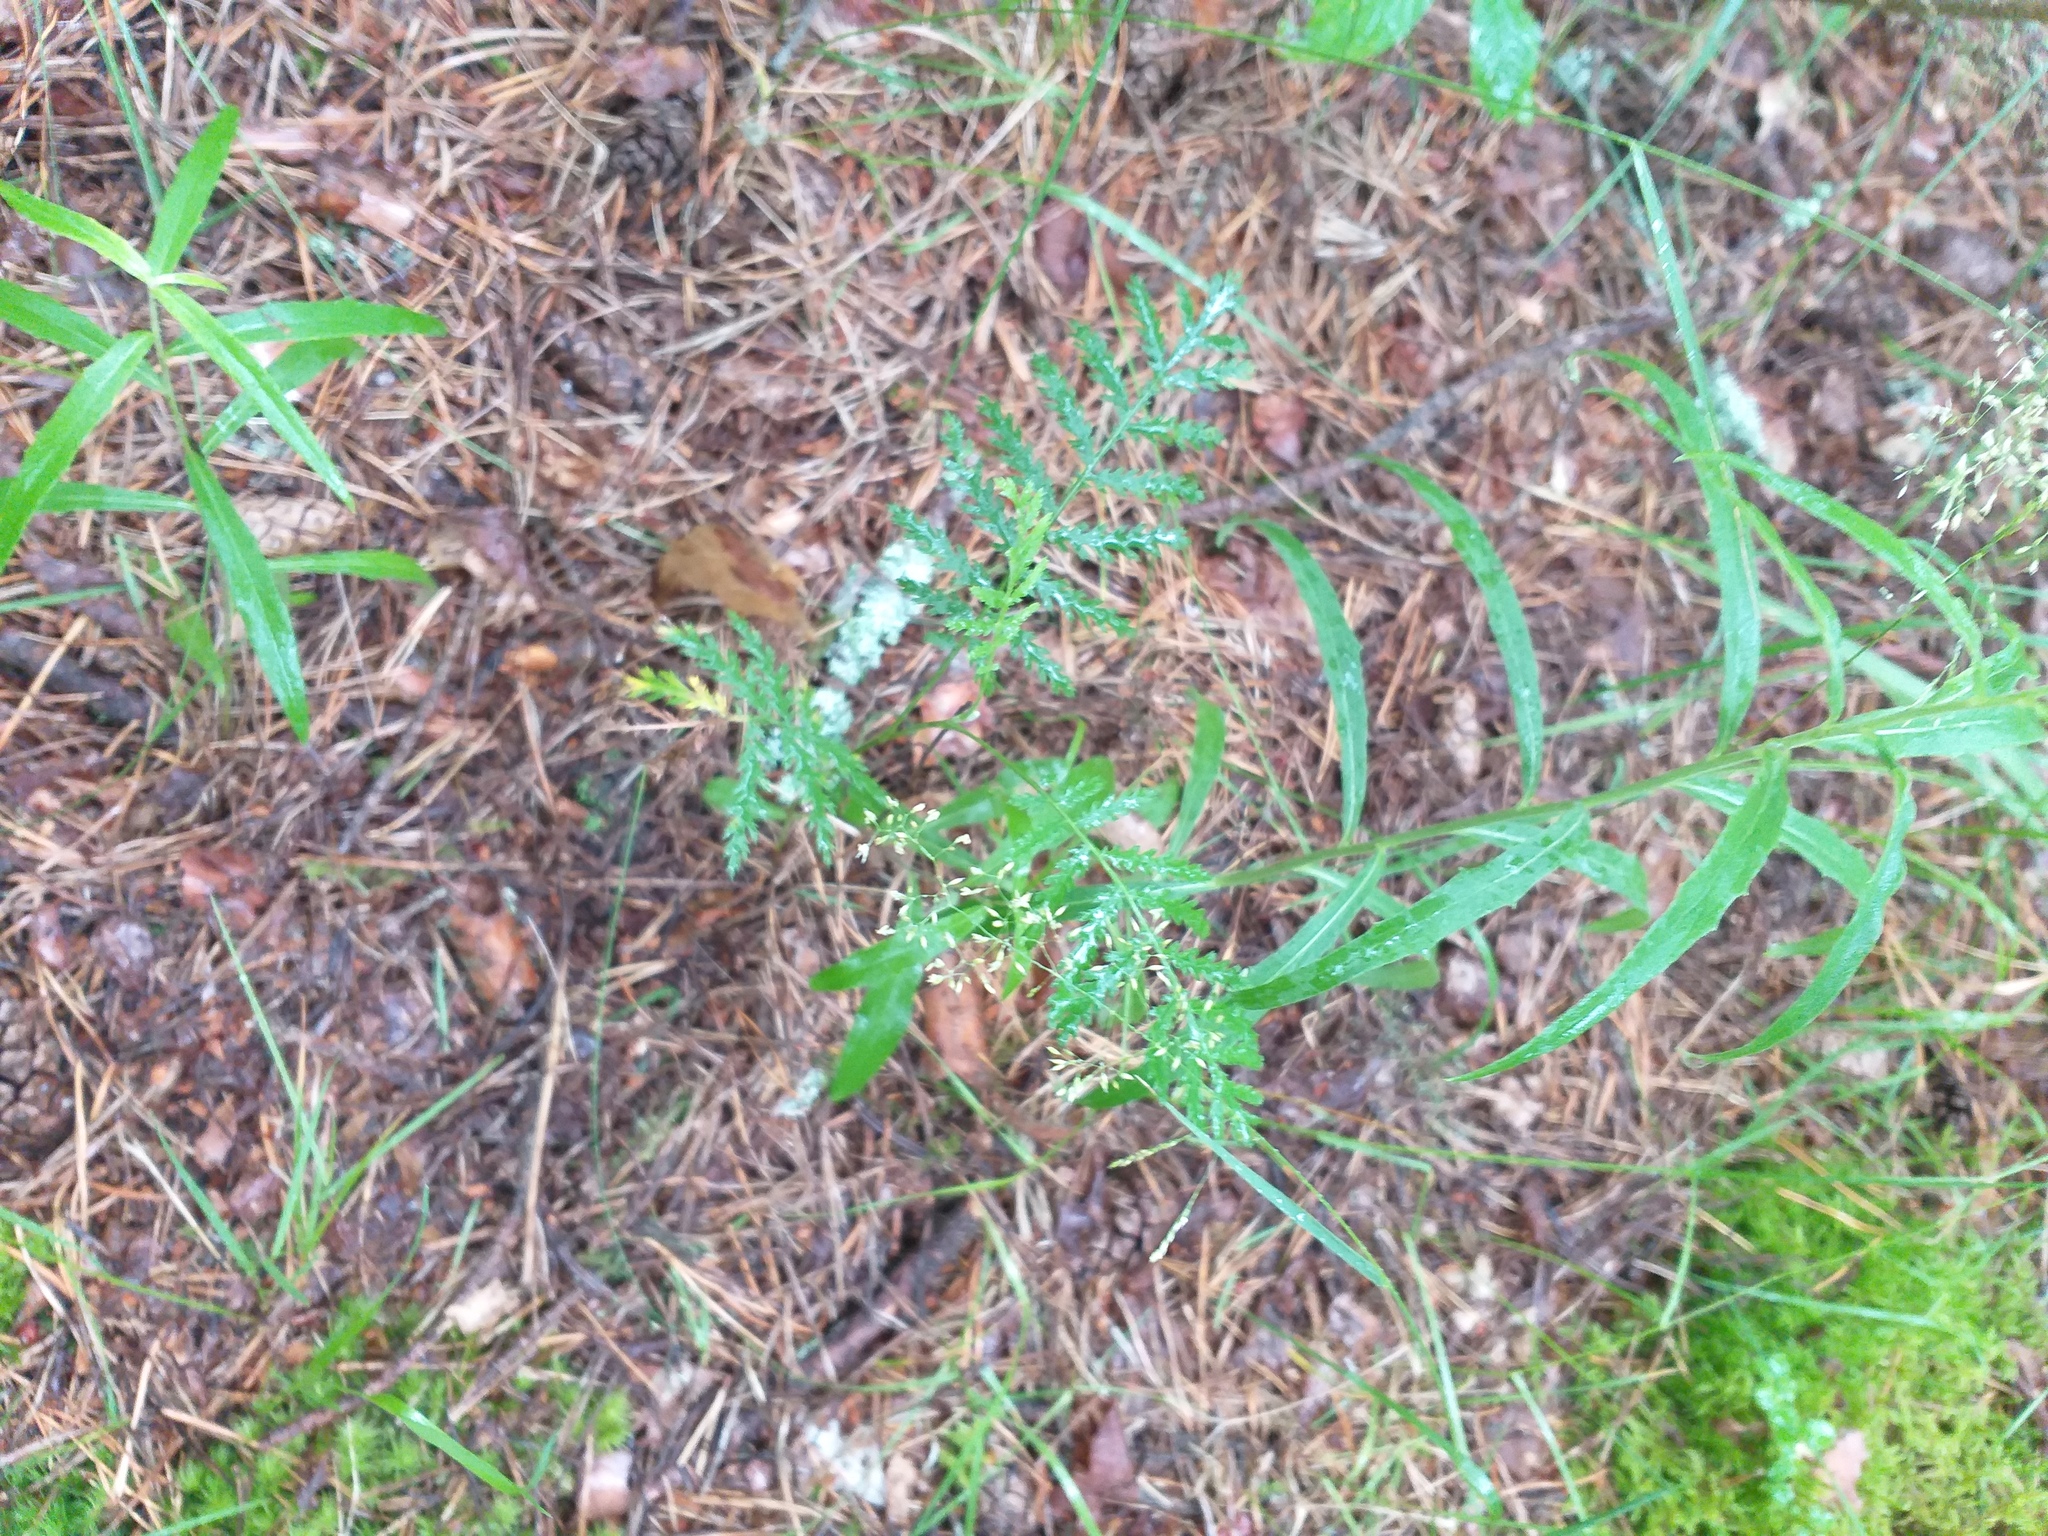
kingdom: Plantae
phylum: Tracheophyta
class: Magnoliopsida
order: Asterales
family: Asteraceae
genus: Tanacetum
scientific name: Tanacetum vulgare
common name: Common tansy
